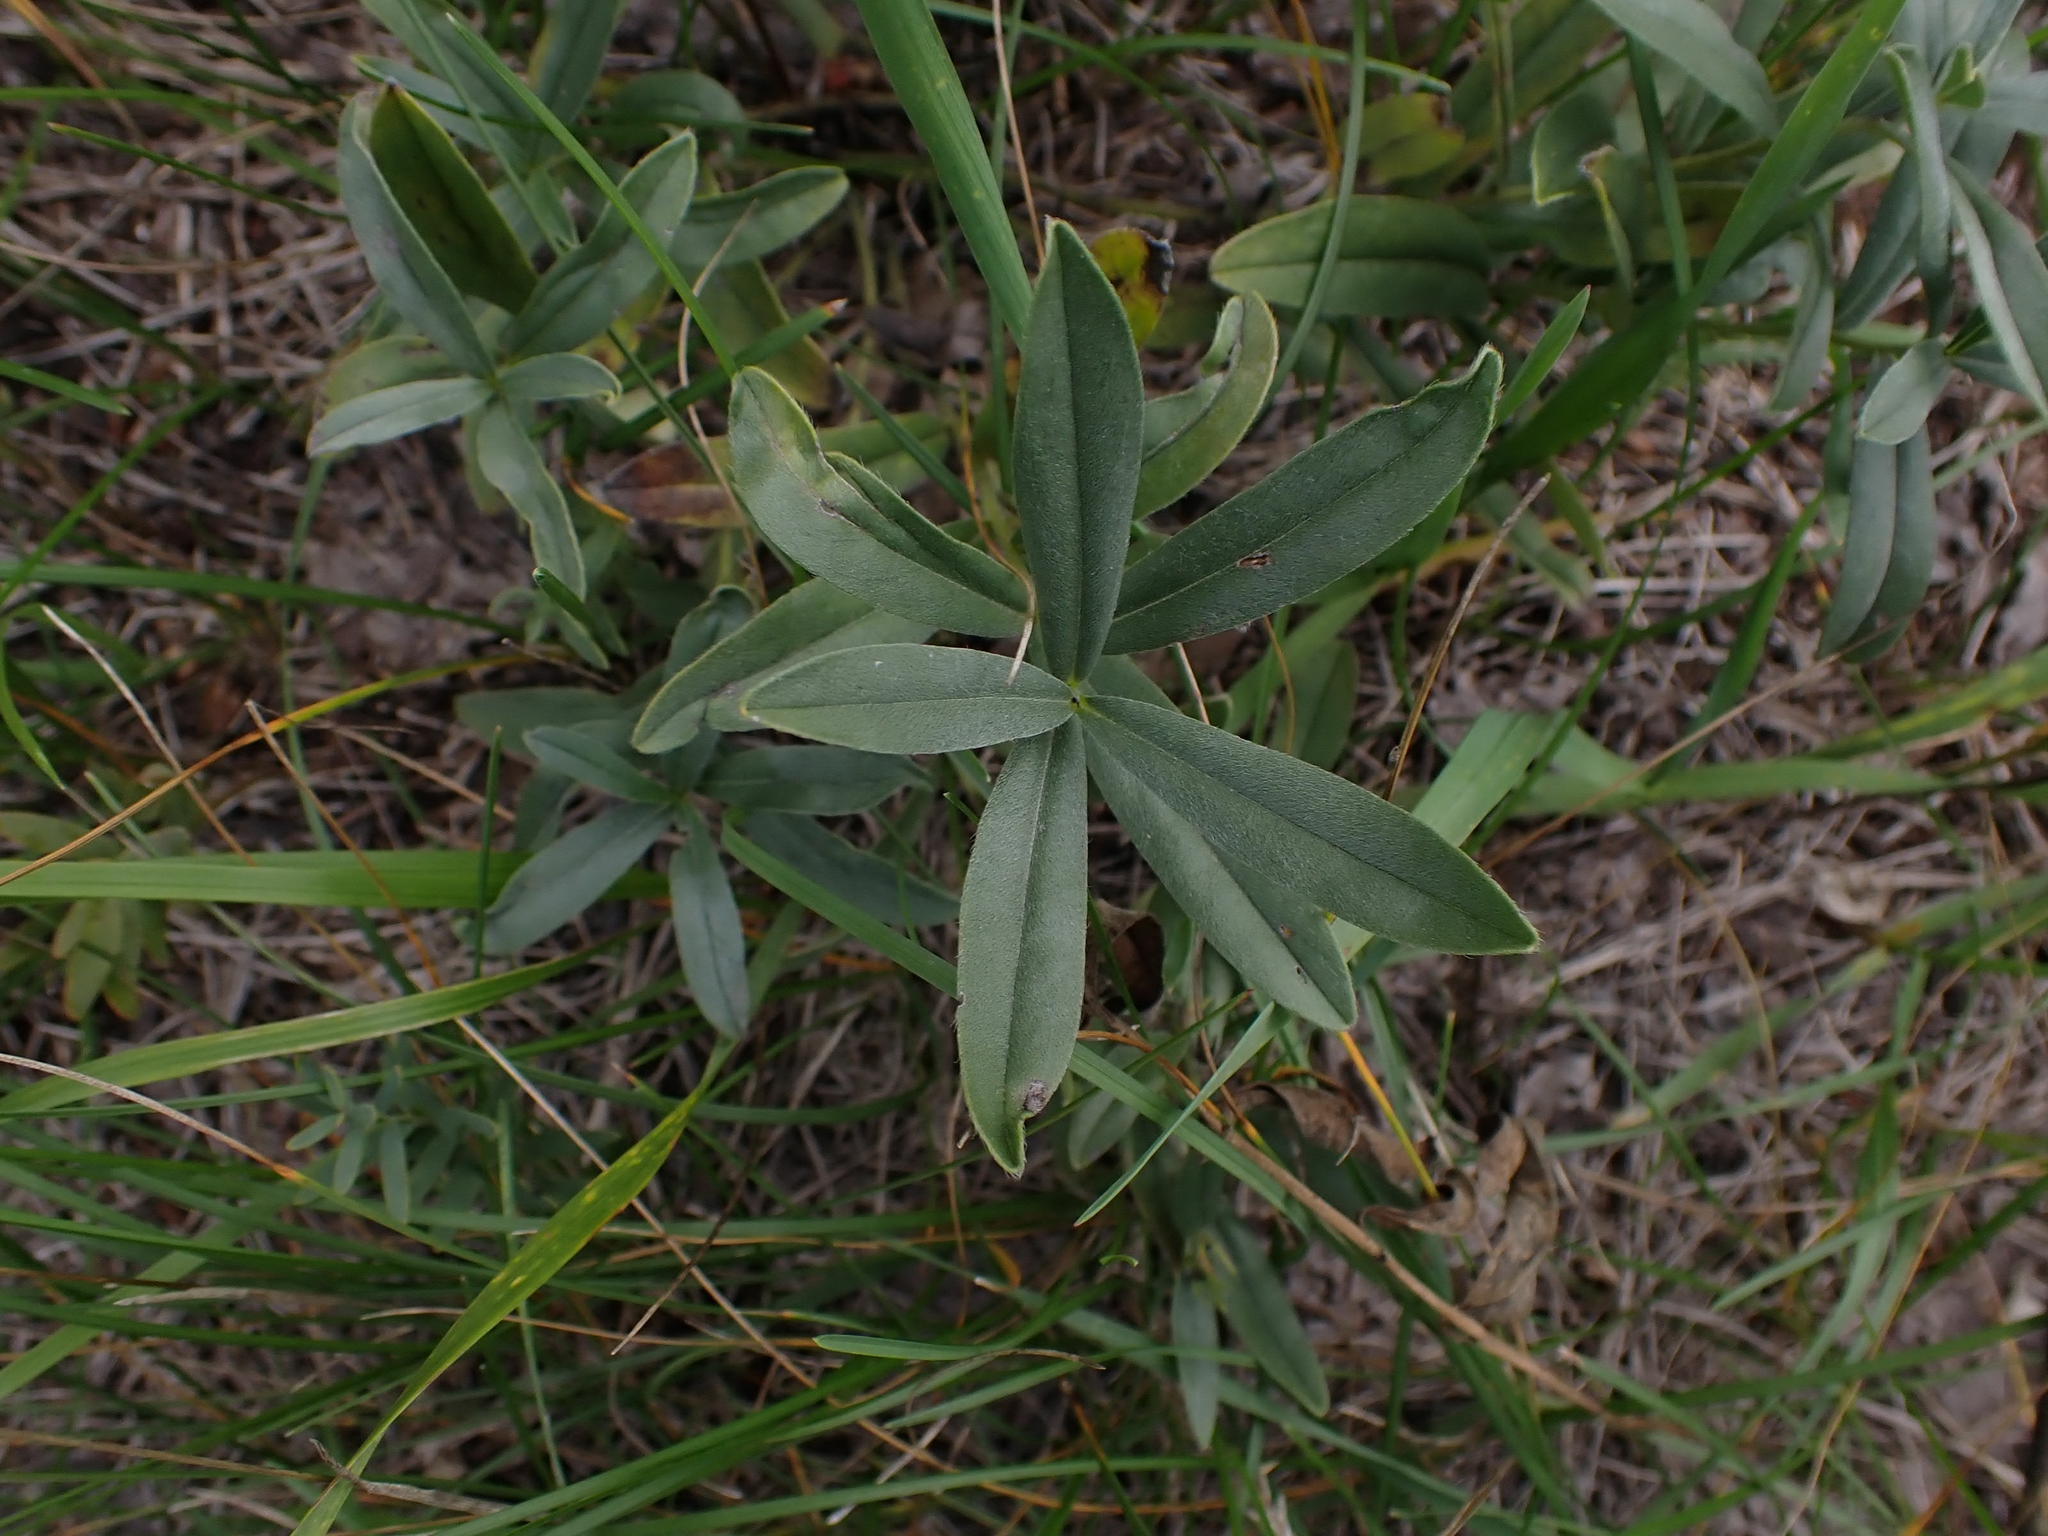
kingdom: Plantae
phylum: Tracheophyta
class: Magnoliopsida
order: Boraginales
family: Boraginaceae
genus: Lithospermum
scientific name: Lithospermum canescens
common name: Hoary puccoon
